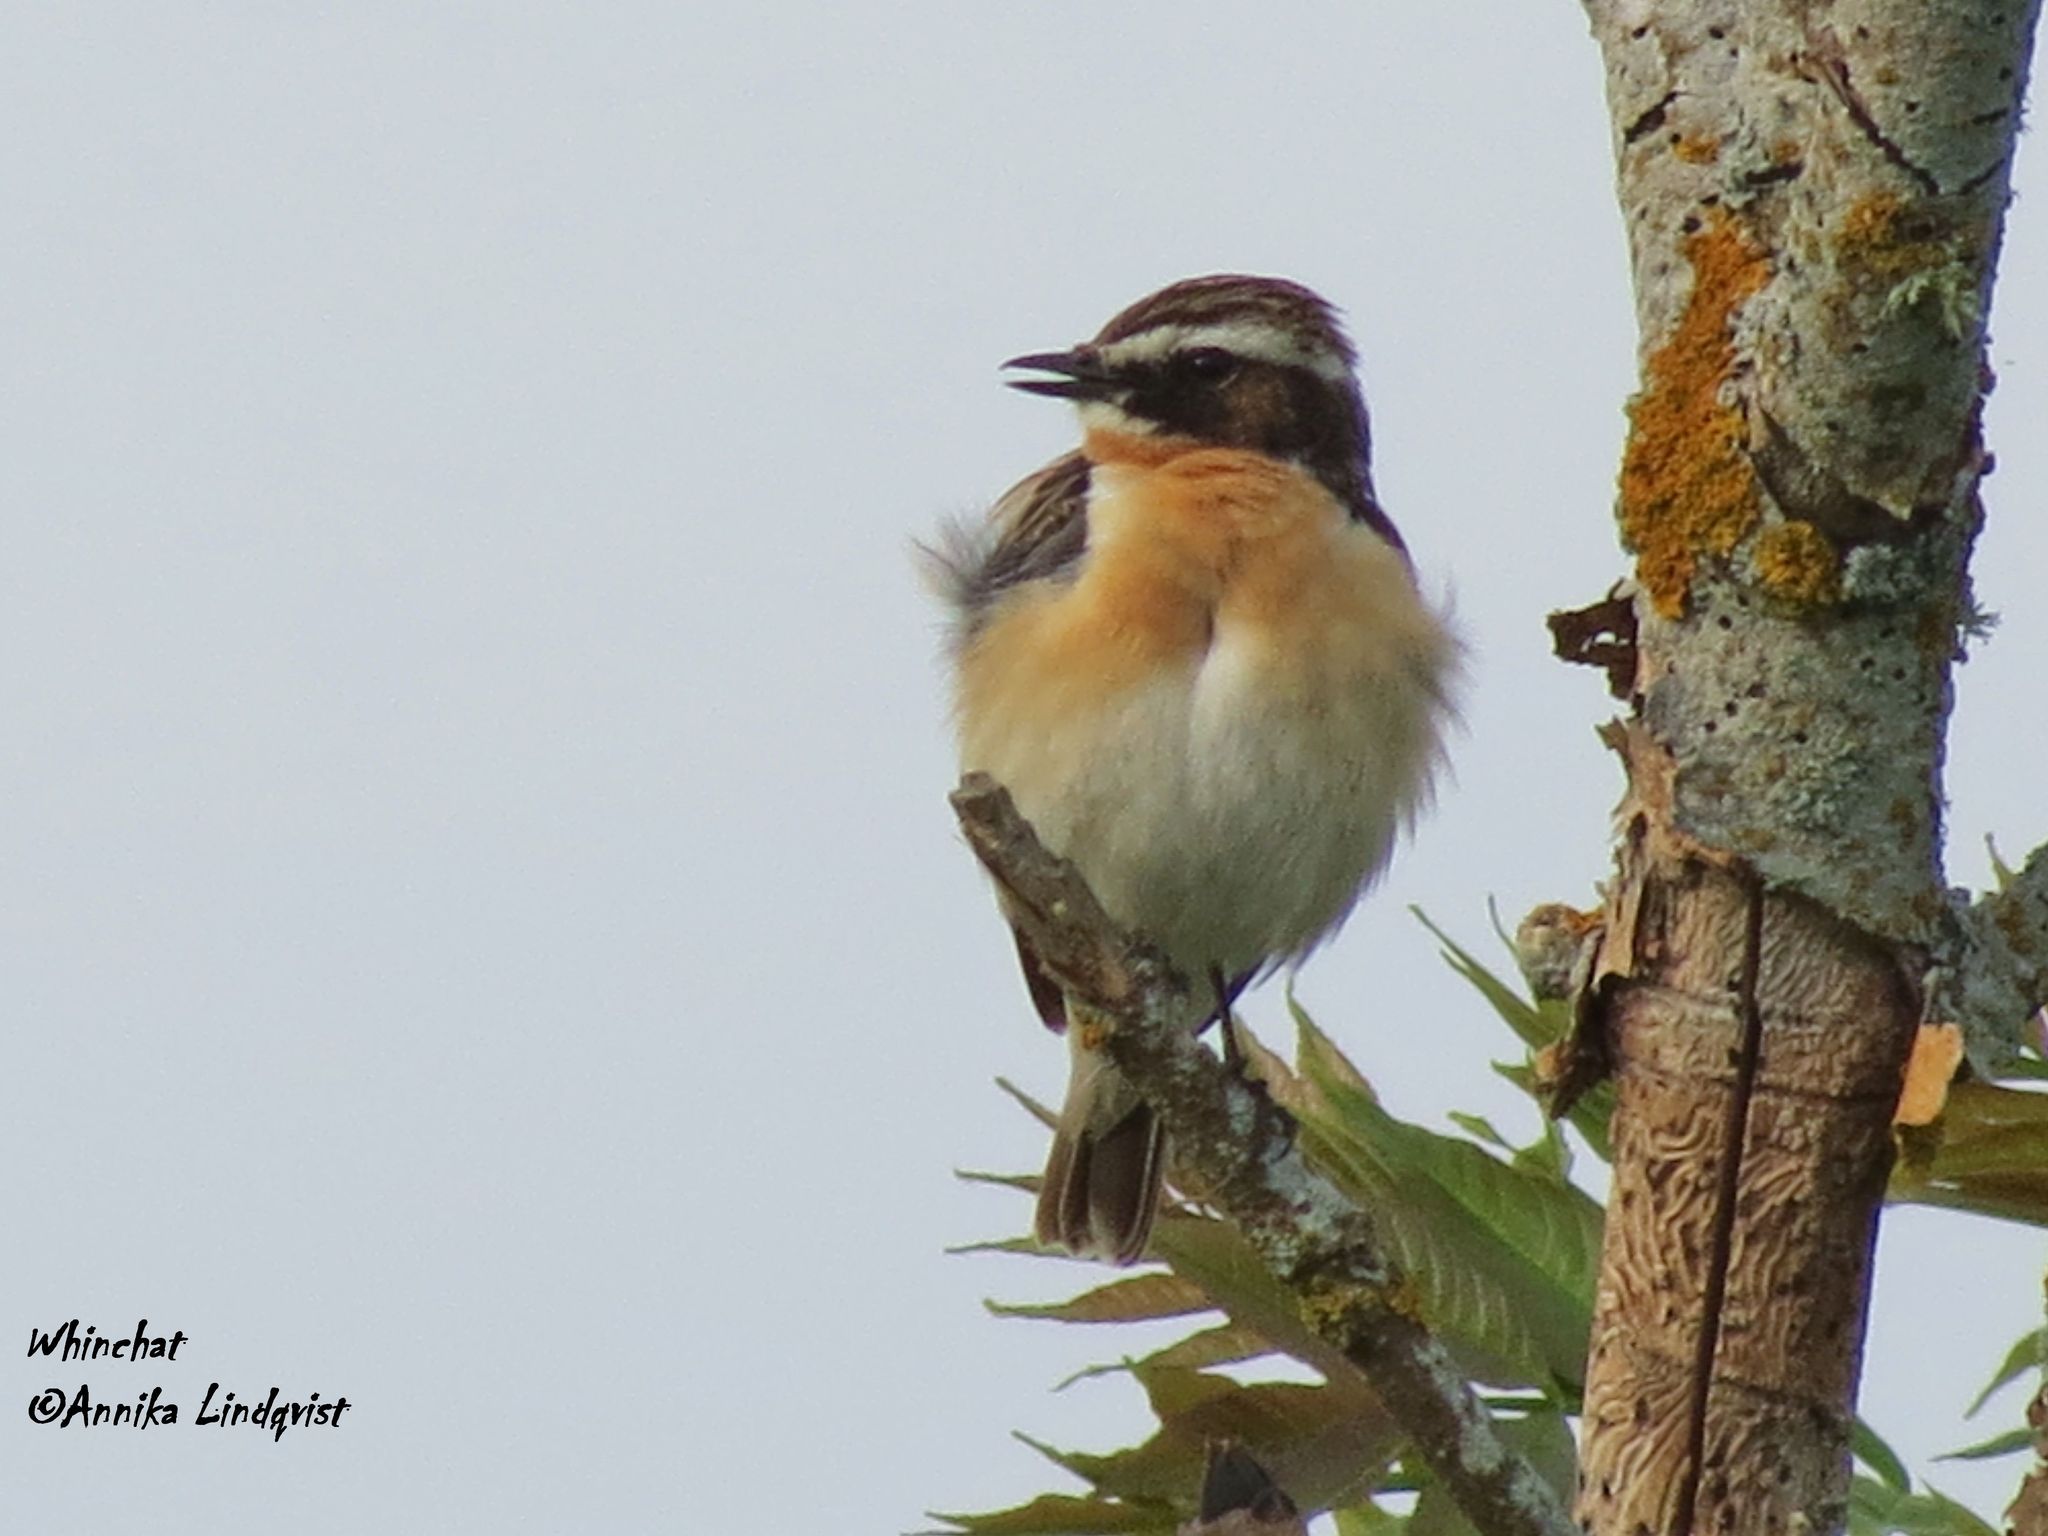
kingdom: Animalia
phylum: Chordata
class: Aves
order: Passeriformes
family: Muscicapidae
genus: Saxicola
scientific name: Saxicola rubetra
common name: Whinchat
